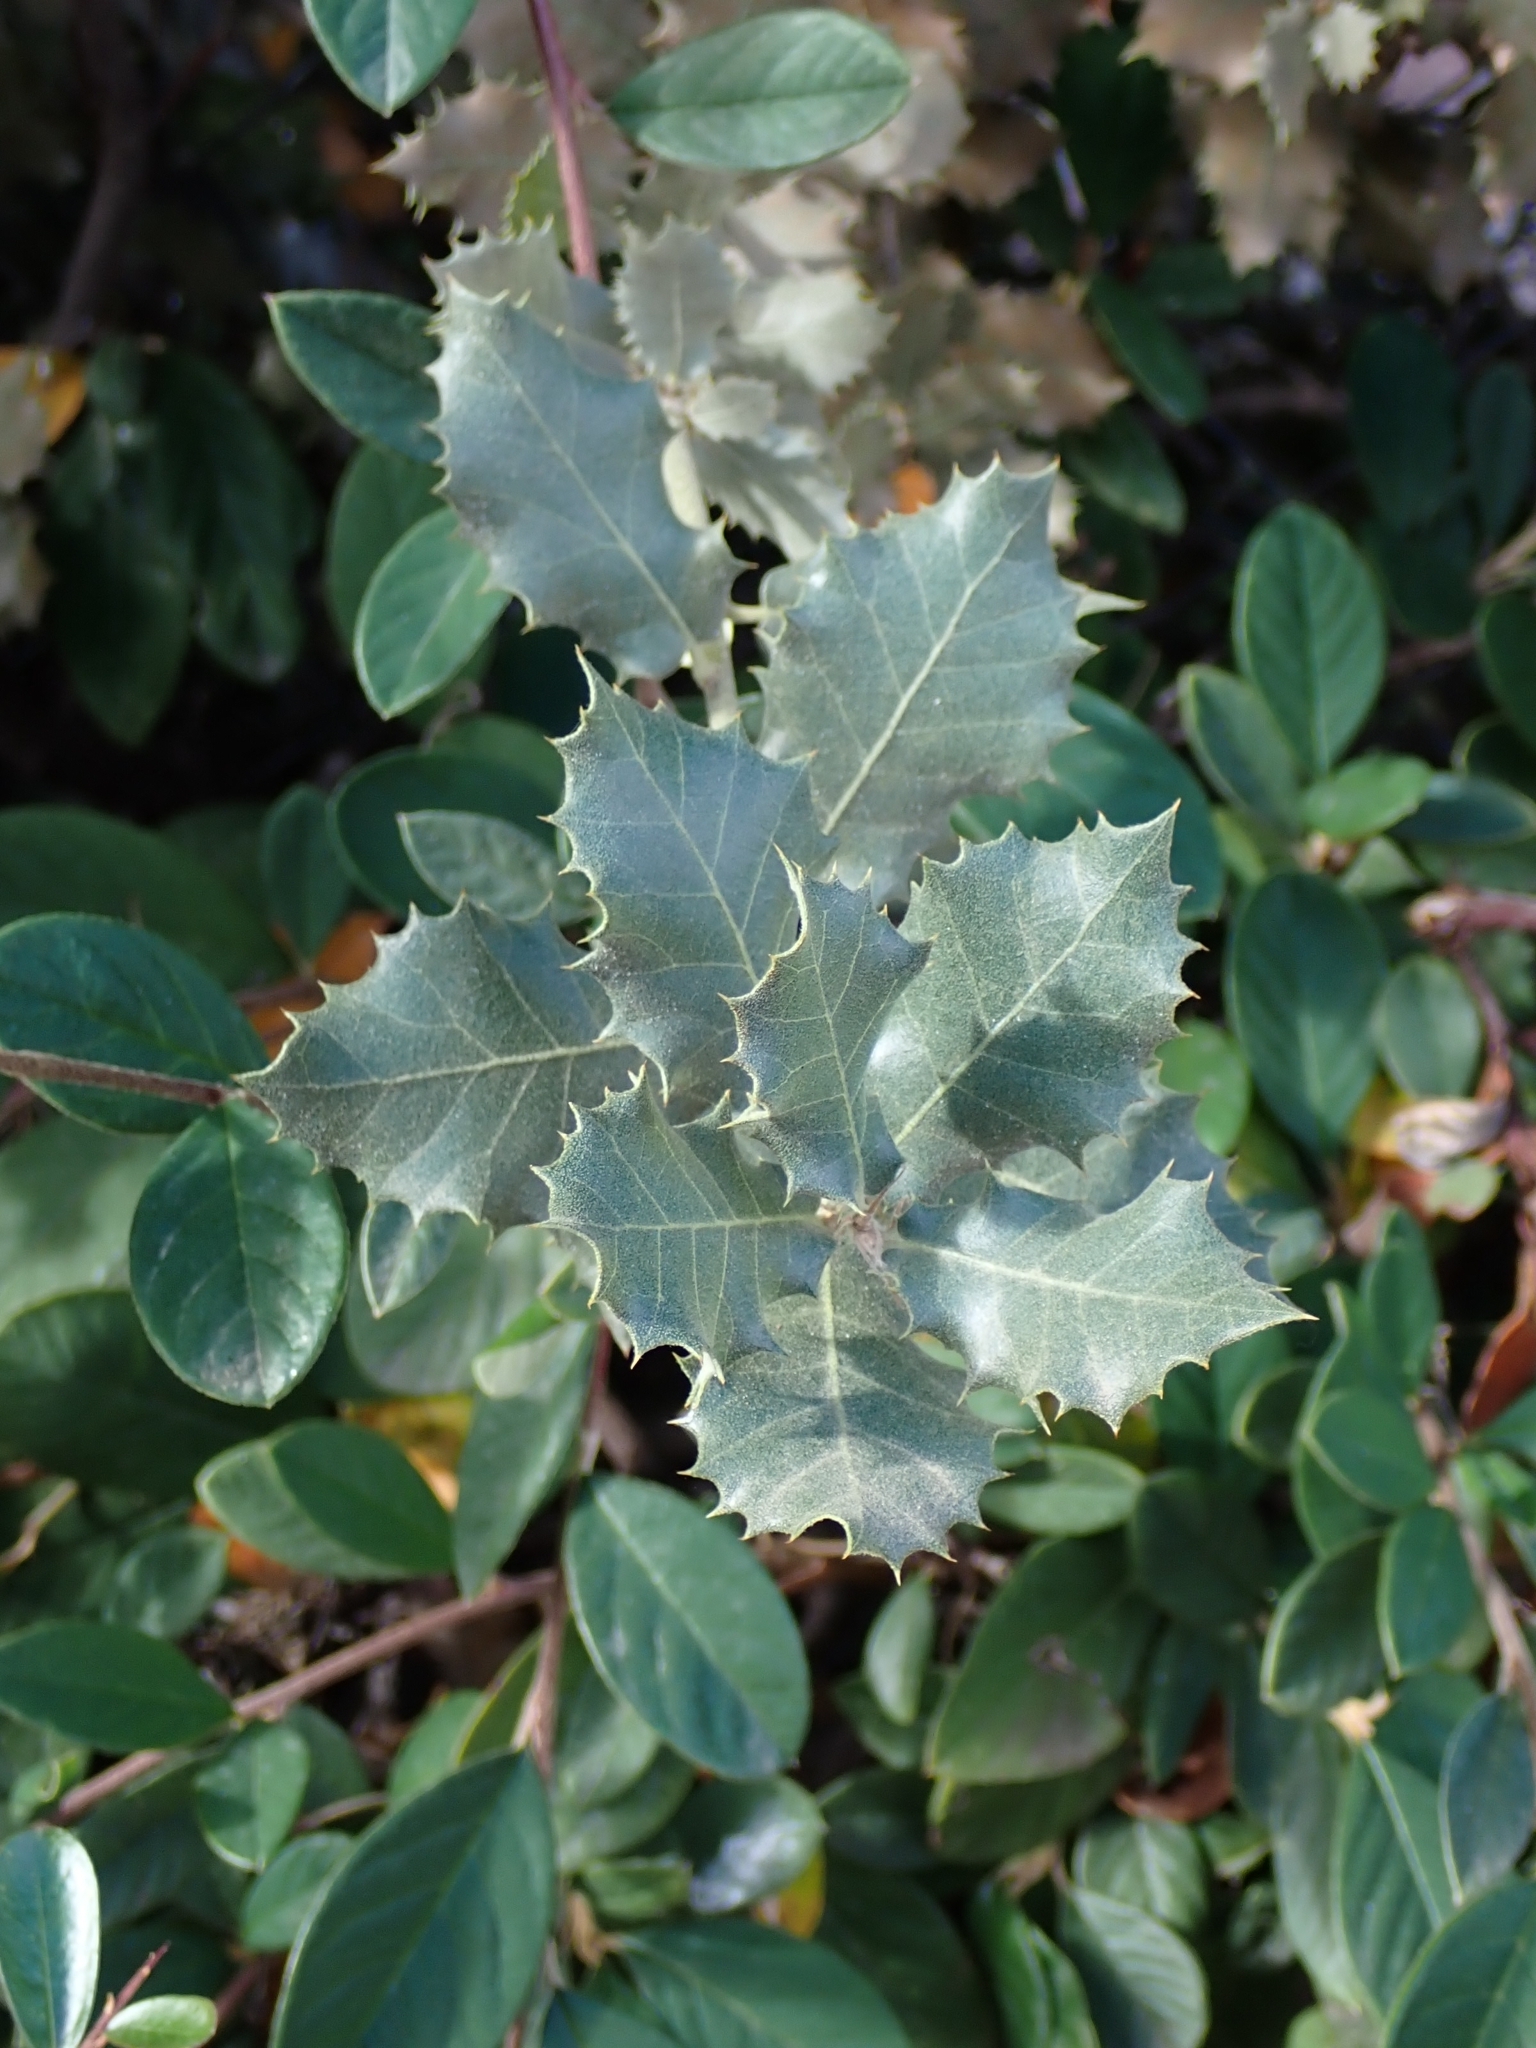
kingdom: Plantae
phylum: Tracheophyta
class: Magnoliopsida
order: Fagales
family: Fagaceae
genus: Quercus
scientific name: Quercus rotundifolia
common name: Holm oak
